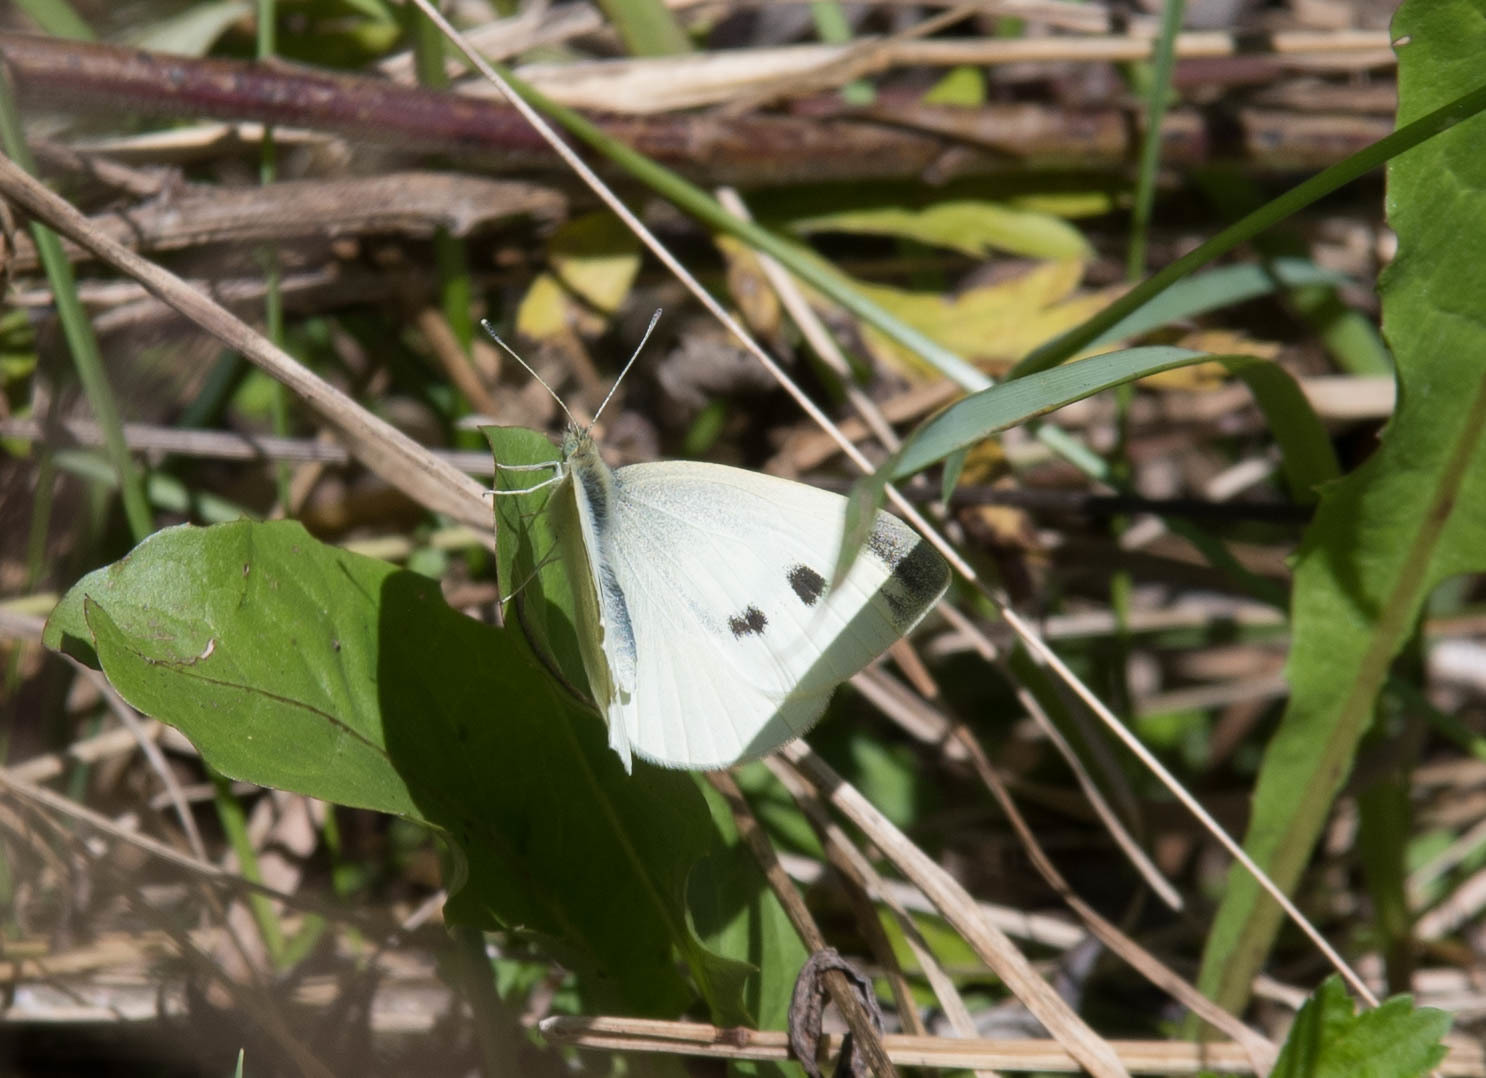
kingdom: Animalia
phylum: Arthropoda
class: Insecta
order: Lepidoptera
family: Pieridae
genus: Pieris
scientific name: Pieris rapae
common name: Small white
